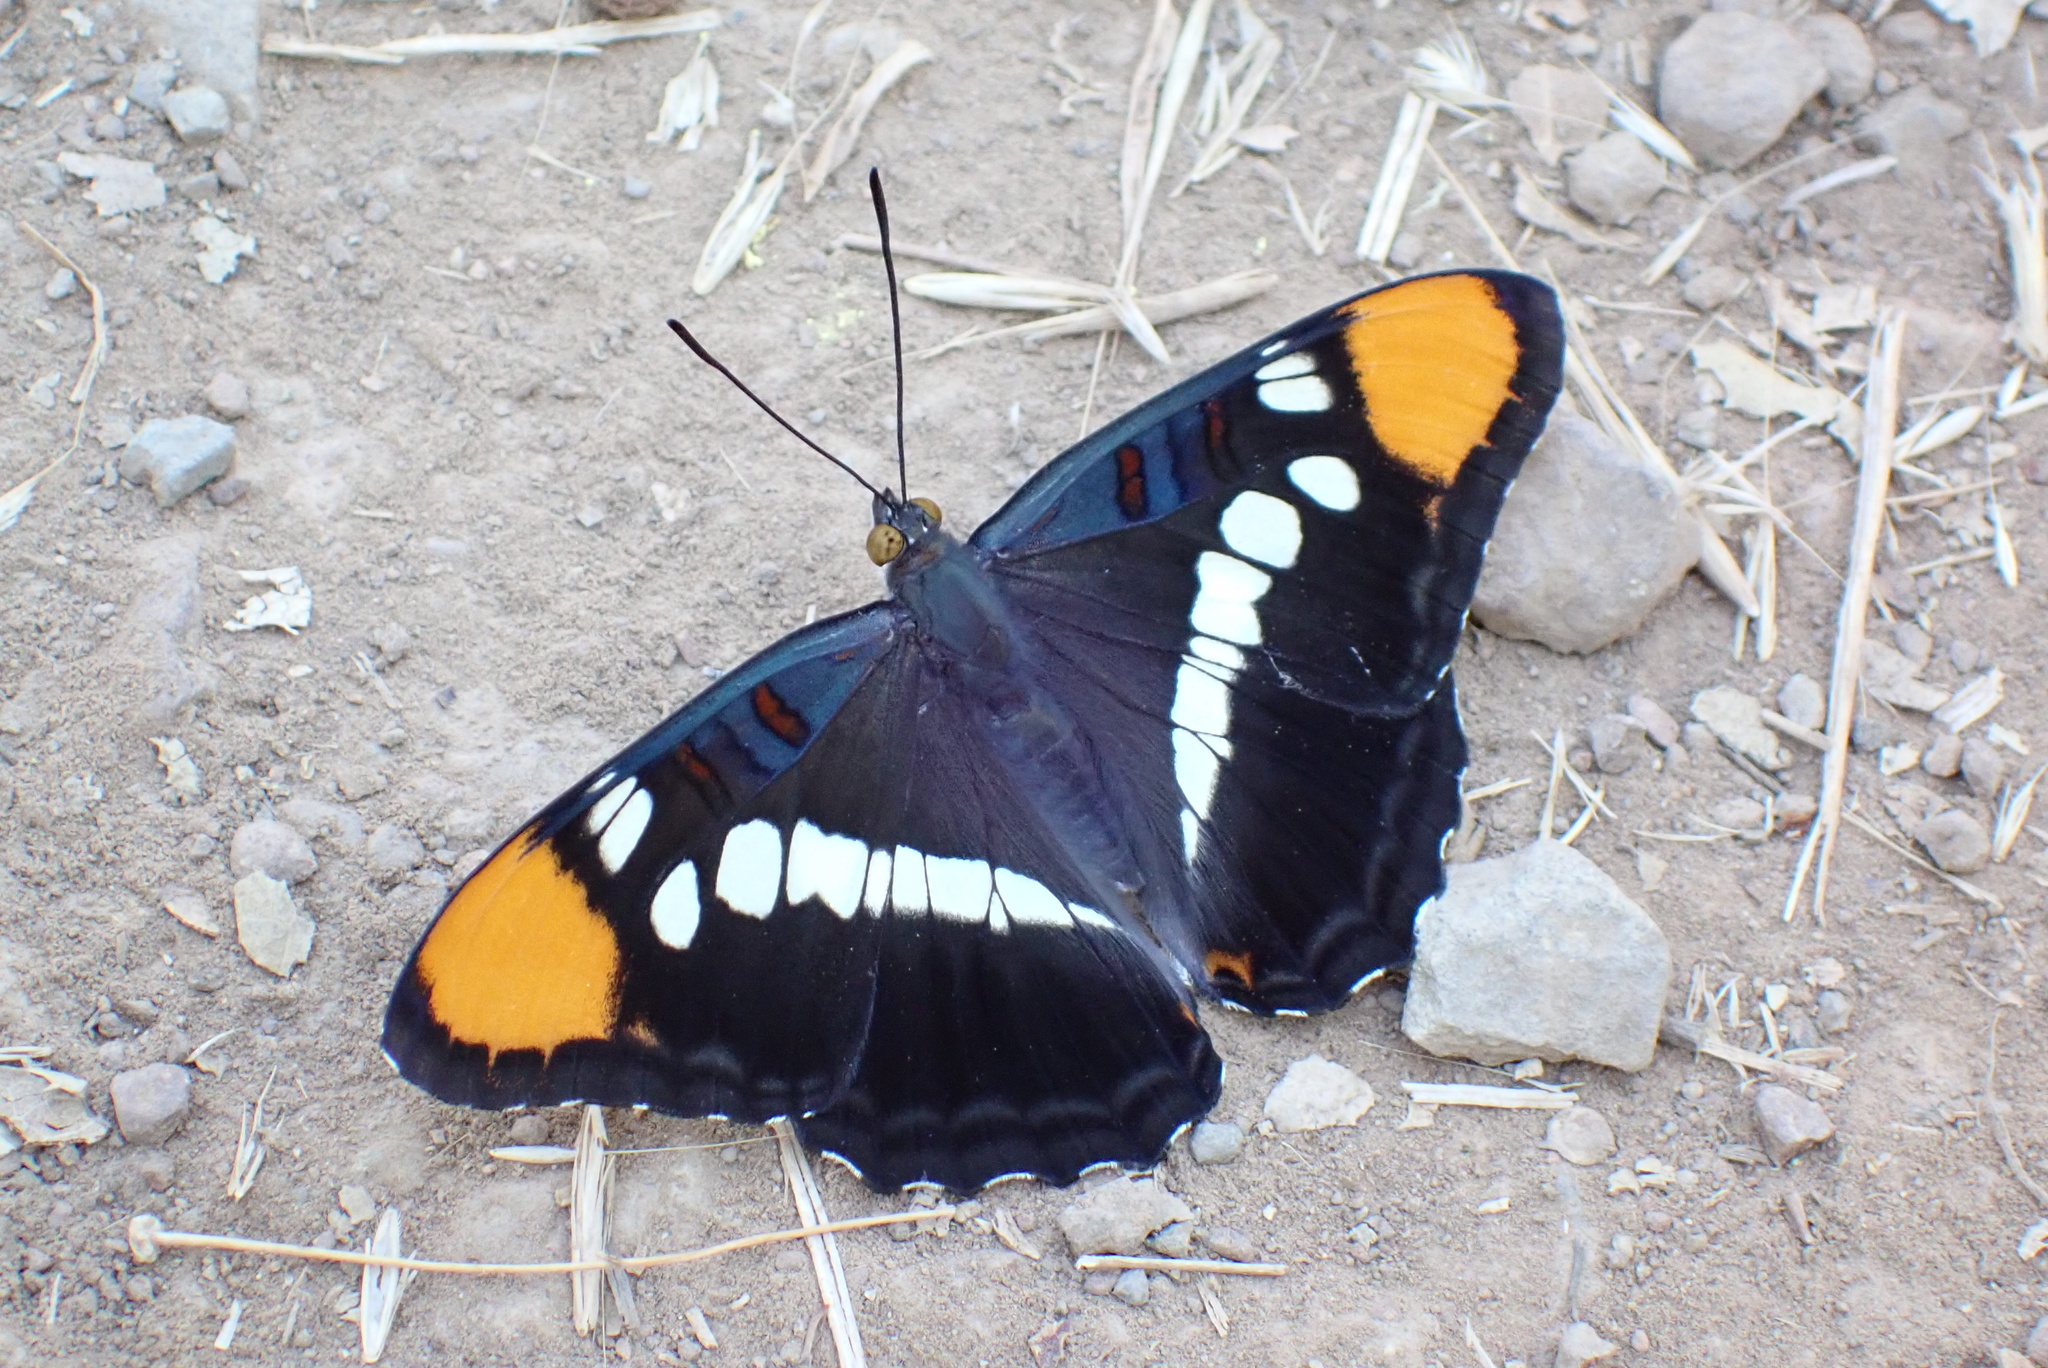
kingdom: Animalia
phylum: Arthropoda
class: Insecta
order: Lepidoptera
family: Nymphalidae
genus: Limenitis
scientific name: Limenitis bredowii
